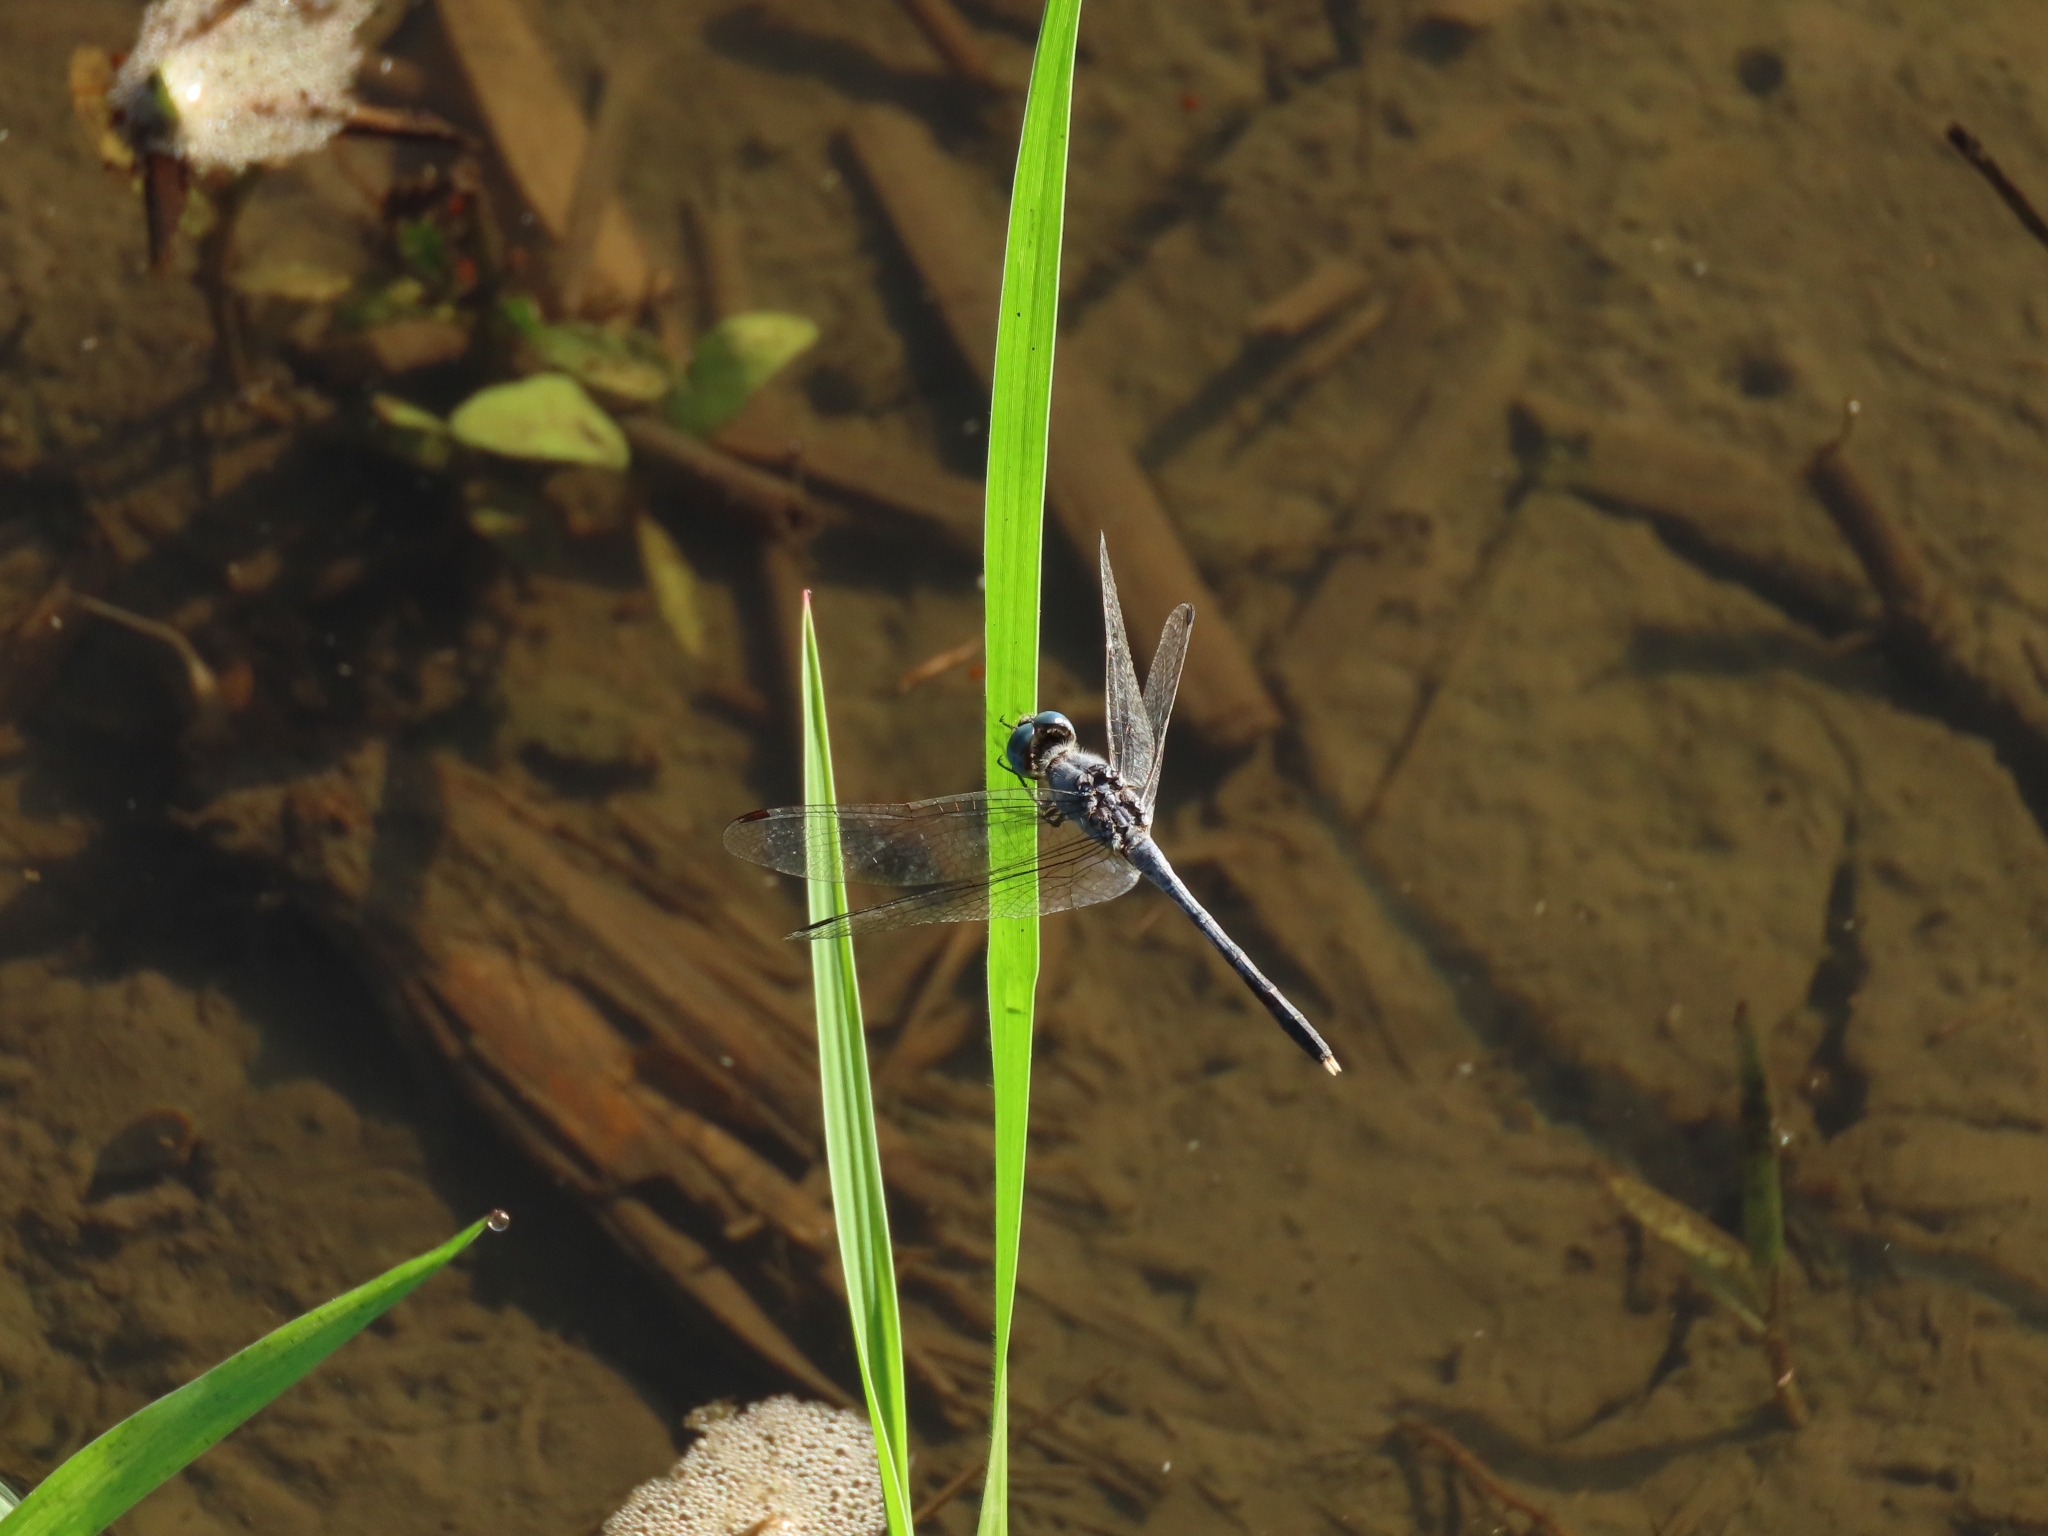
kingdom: Animalia
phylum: Arthropoda
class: Insecta
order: Odonata
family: Libellulidae
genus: Diplacodes
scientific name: Diplacodes trivialis
